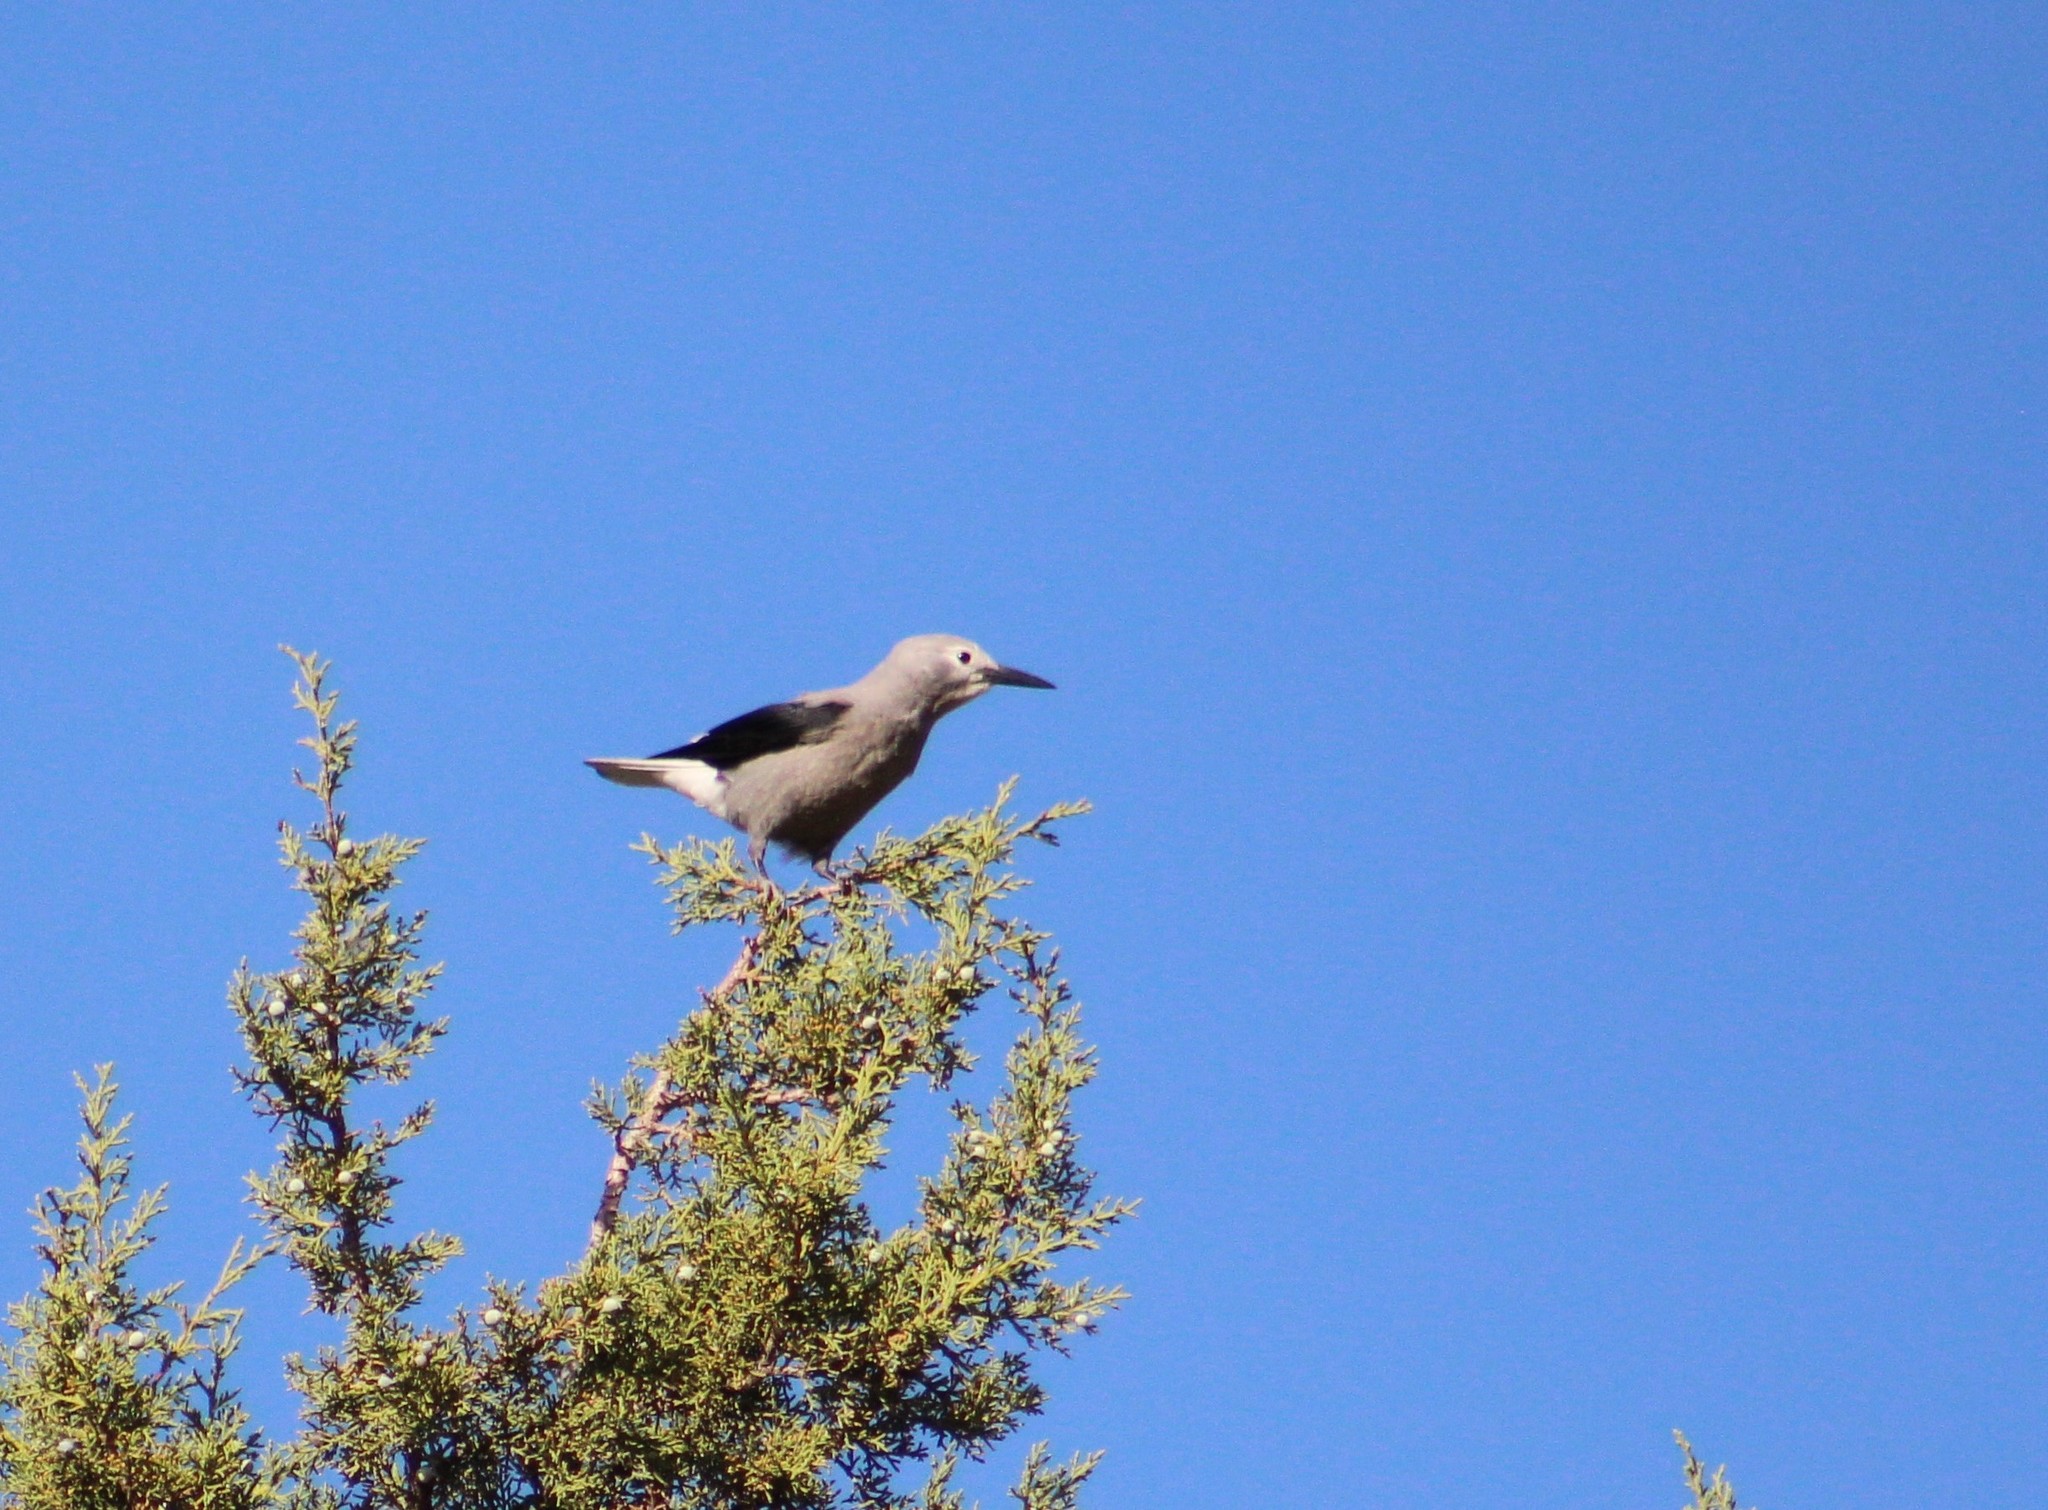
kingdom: Animalia
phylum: Chordata
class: Aves
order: Passeriformes
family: Corvidae
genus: Nucifraga
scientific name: Nucifraga columbiana
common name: Clark's nutcracker
